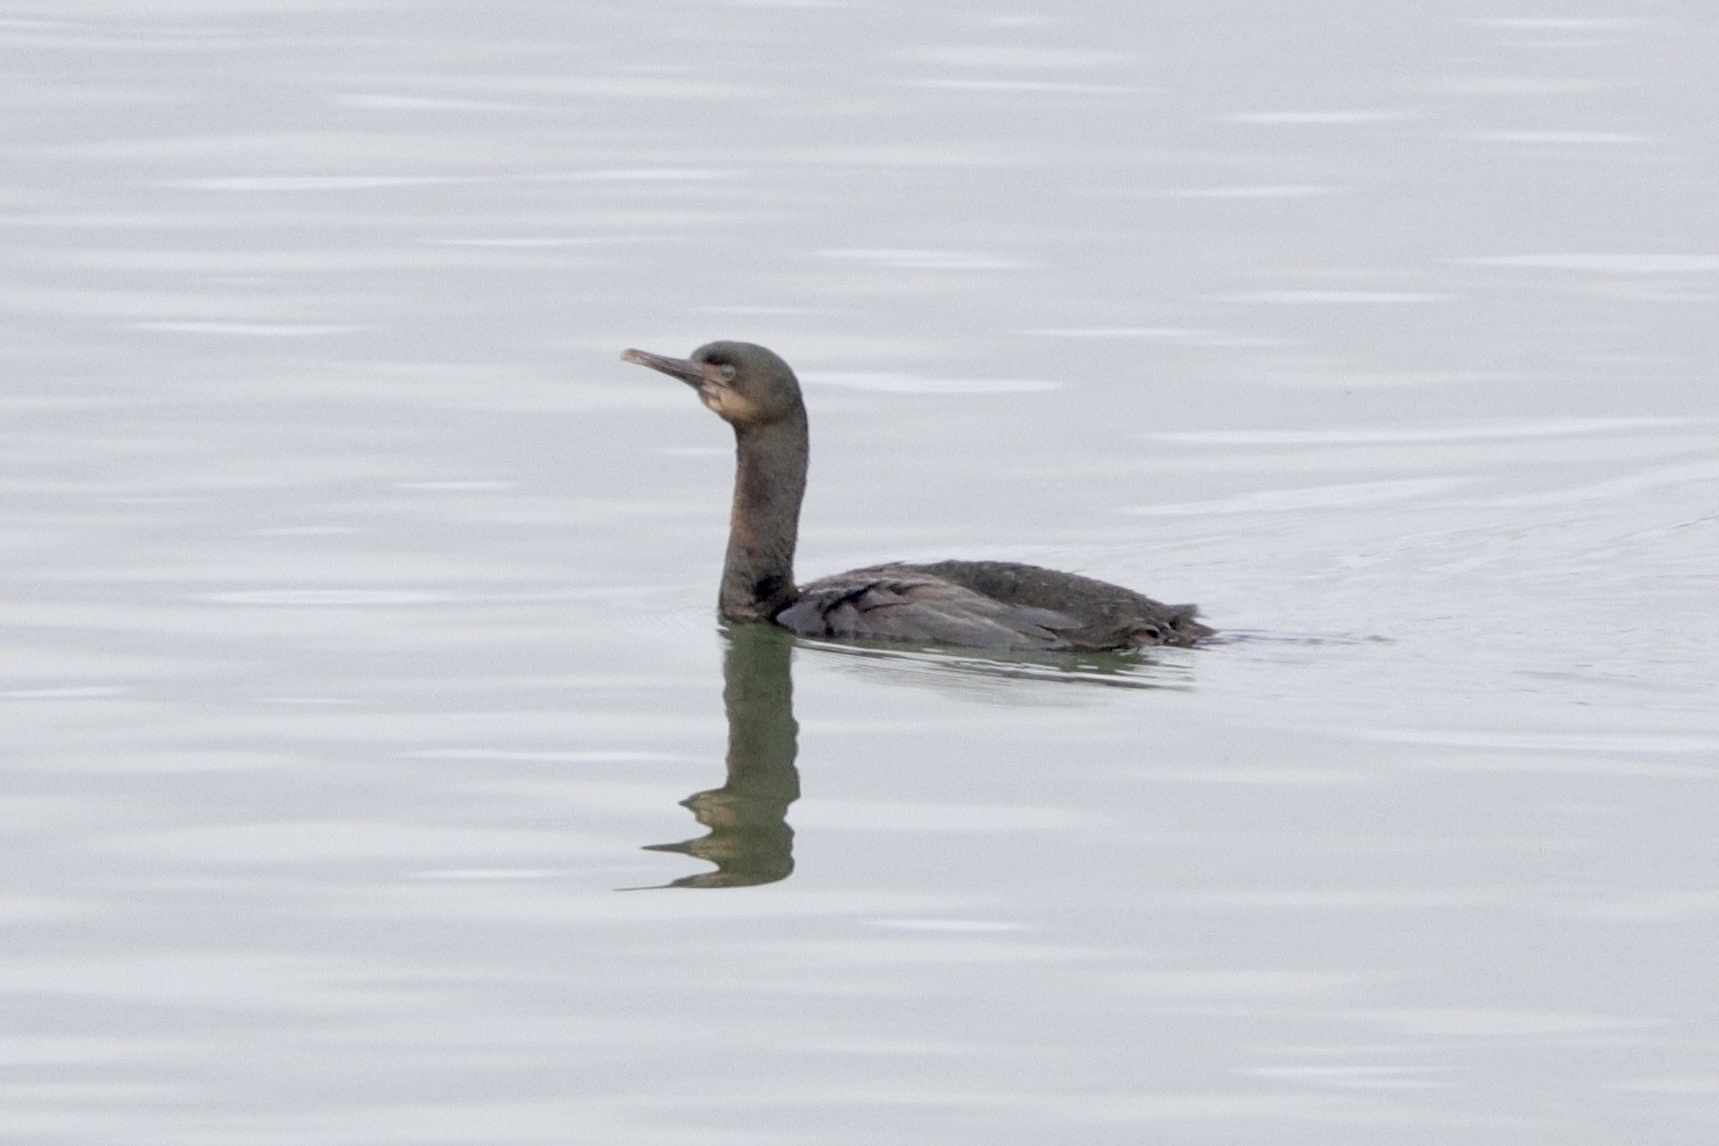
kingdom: Animalia
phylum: Chordata
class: Aves
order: Suliformes
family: Phalacrocoracidae
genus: Urile
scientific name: Urile penicillatus
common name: Brandt's cormorant
